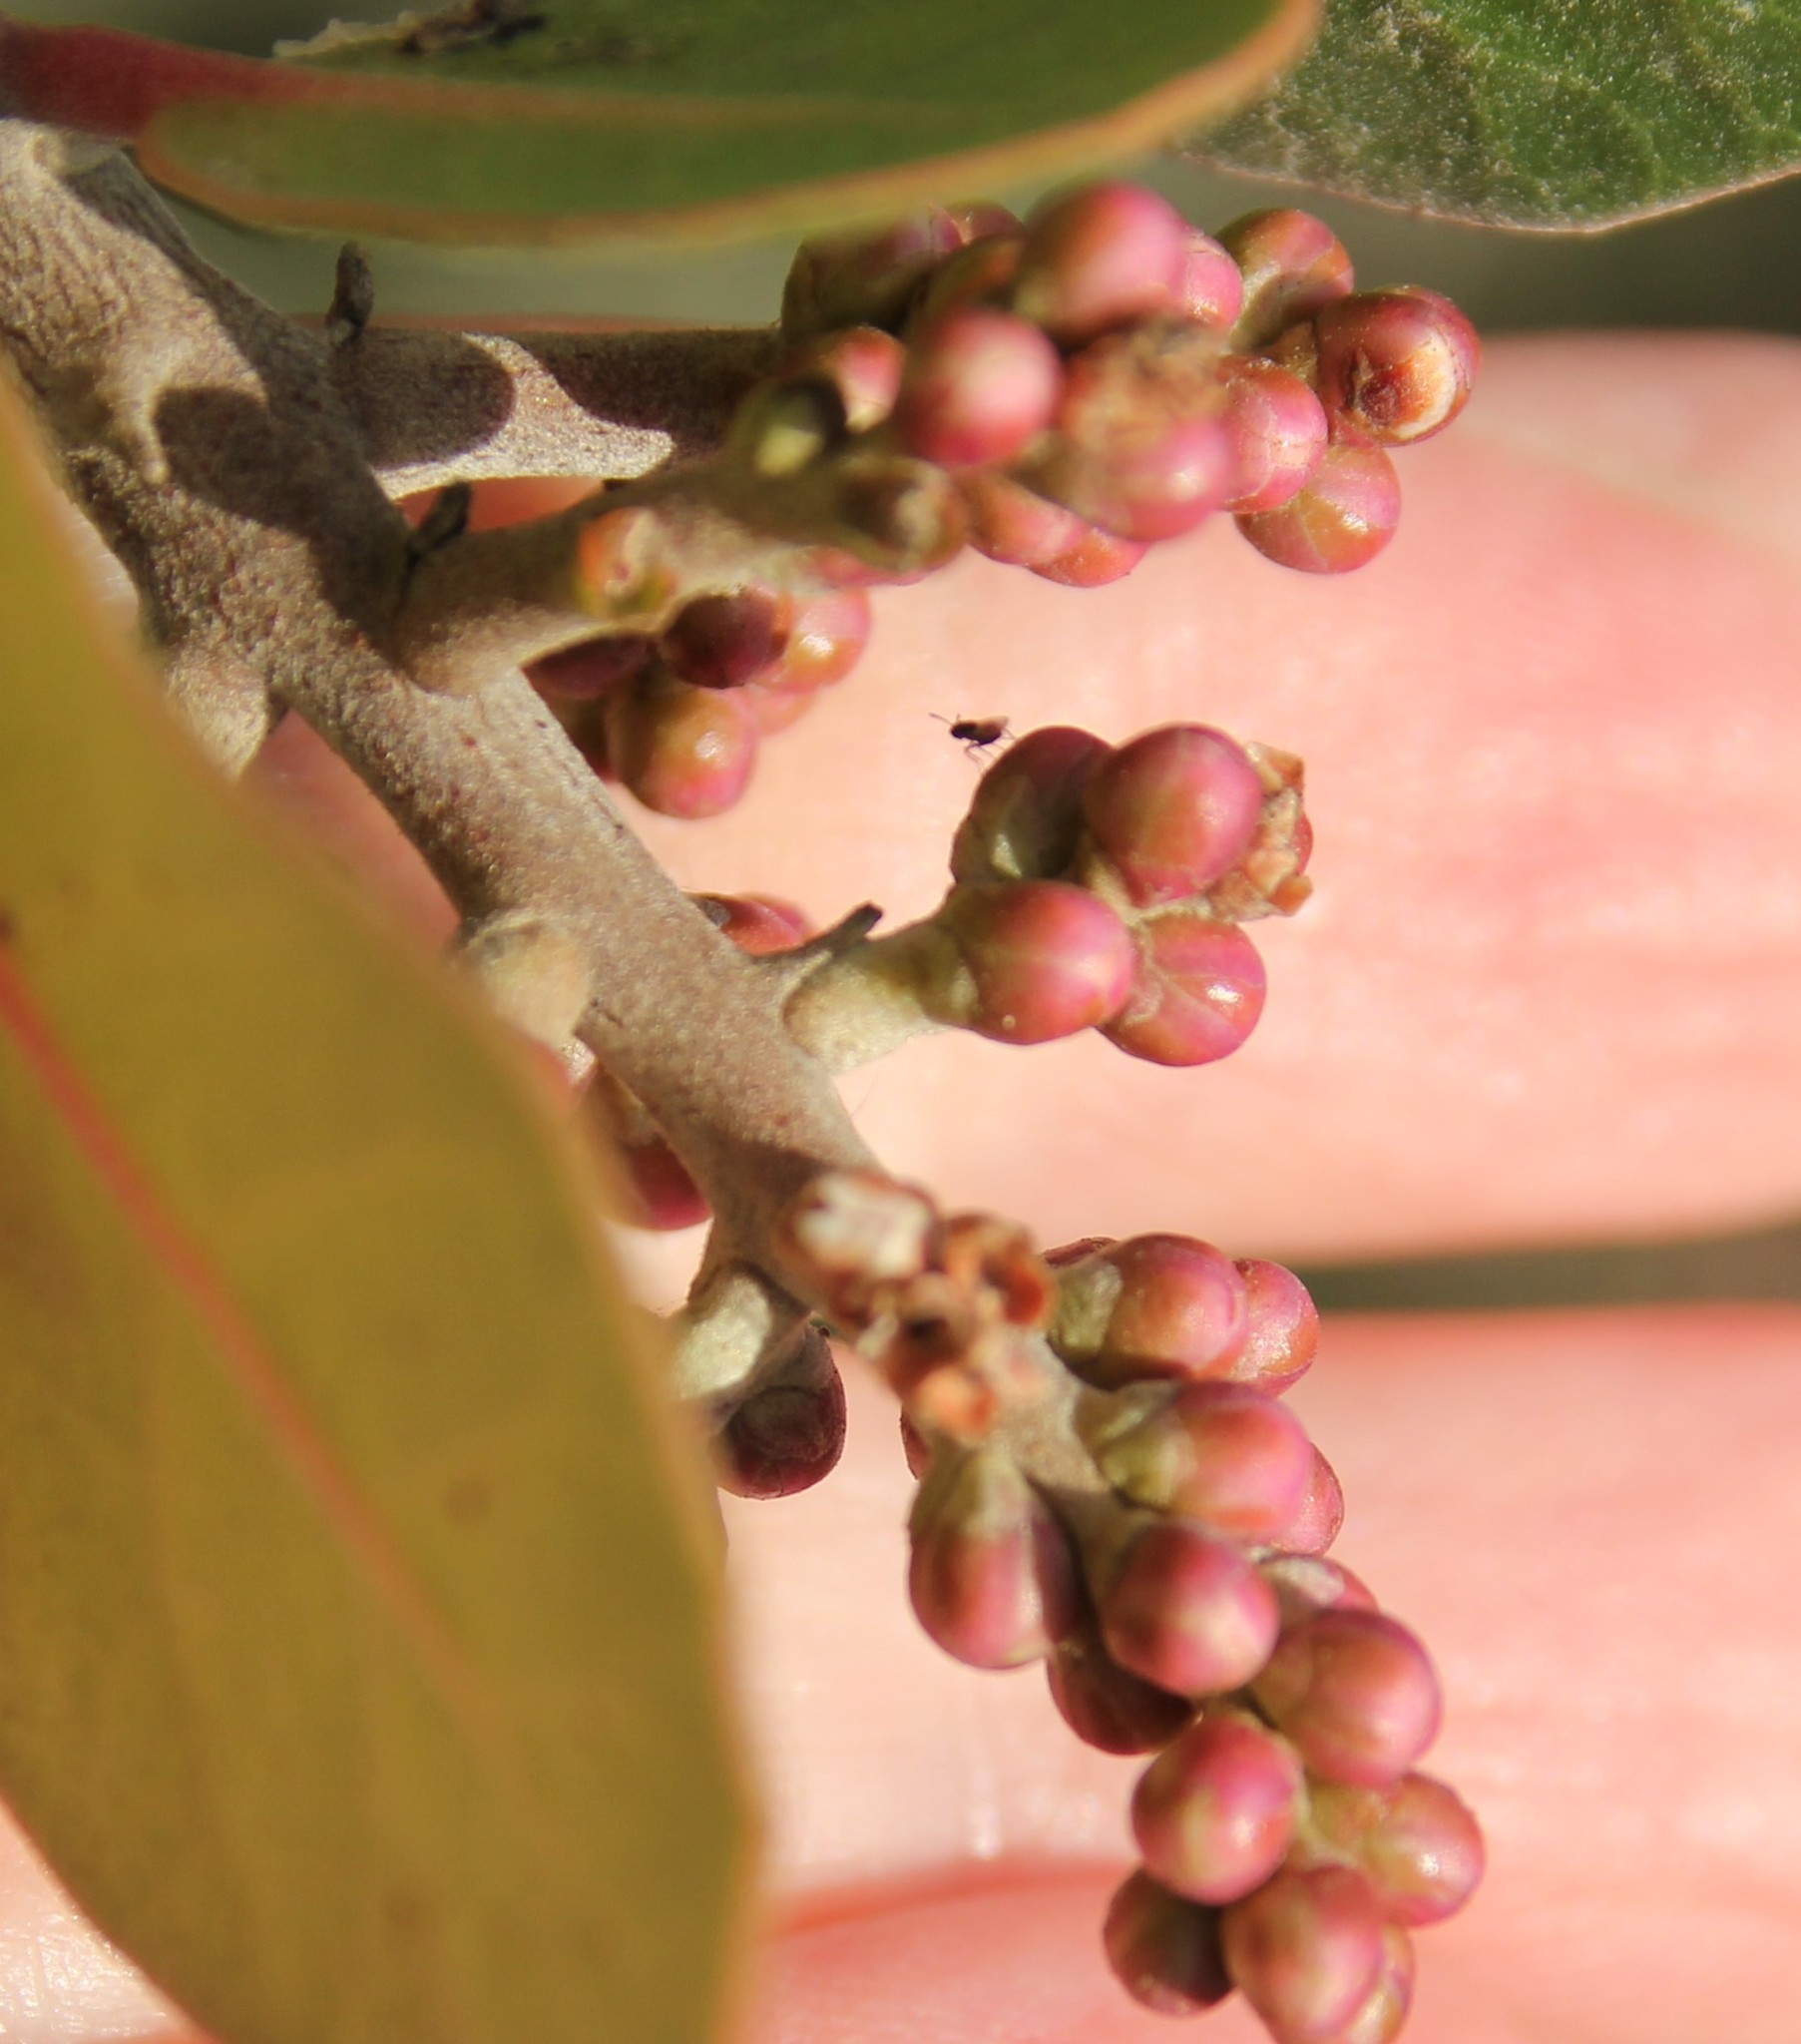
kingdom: Plantae
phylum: Tracheophyta
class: Magnoliopsida
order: Sapindales
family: Anacardiaceae
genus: Rhus
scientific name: Rhus integrifolia
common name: Lemonade sumac
